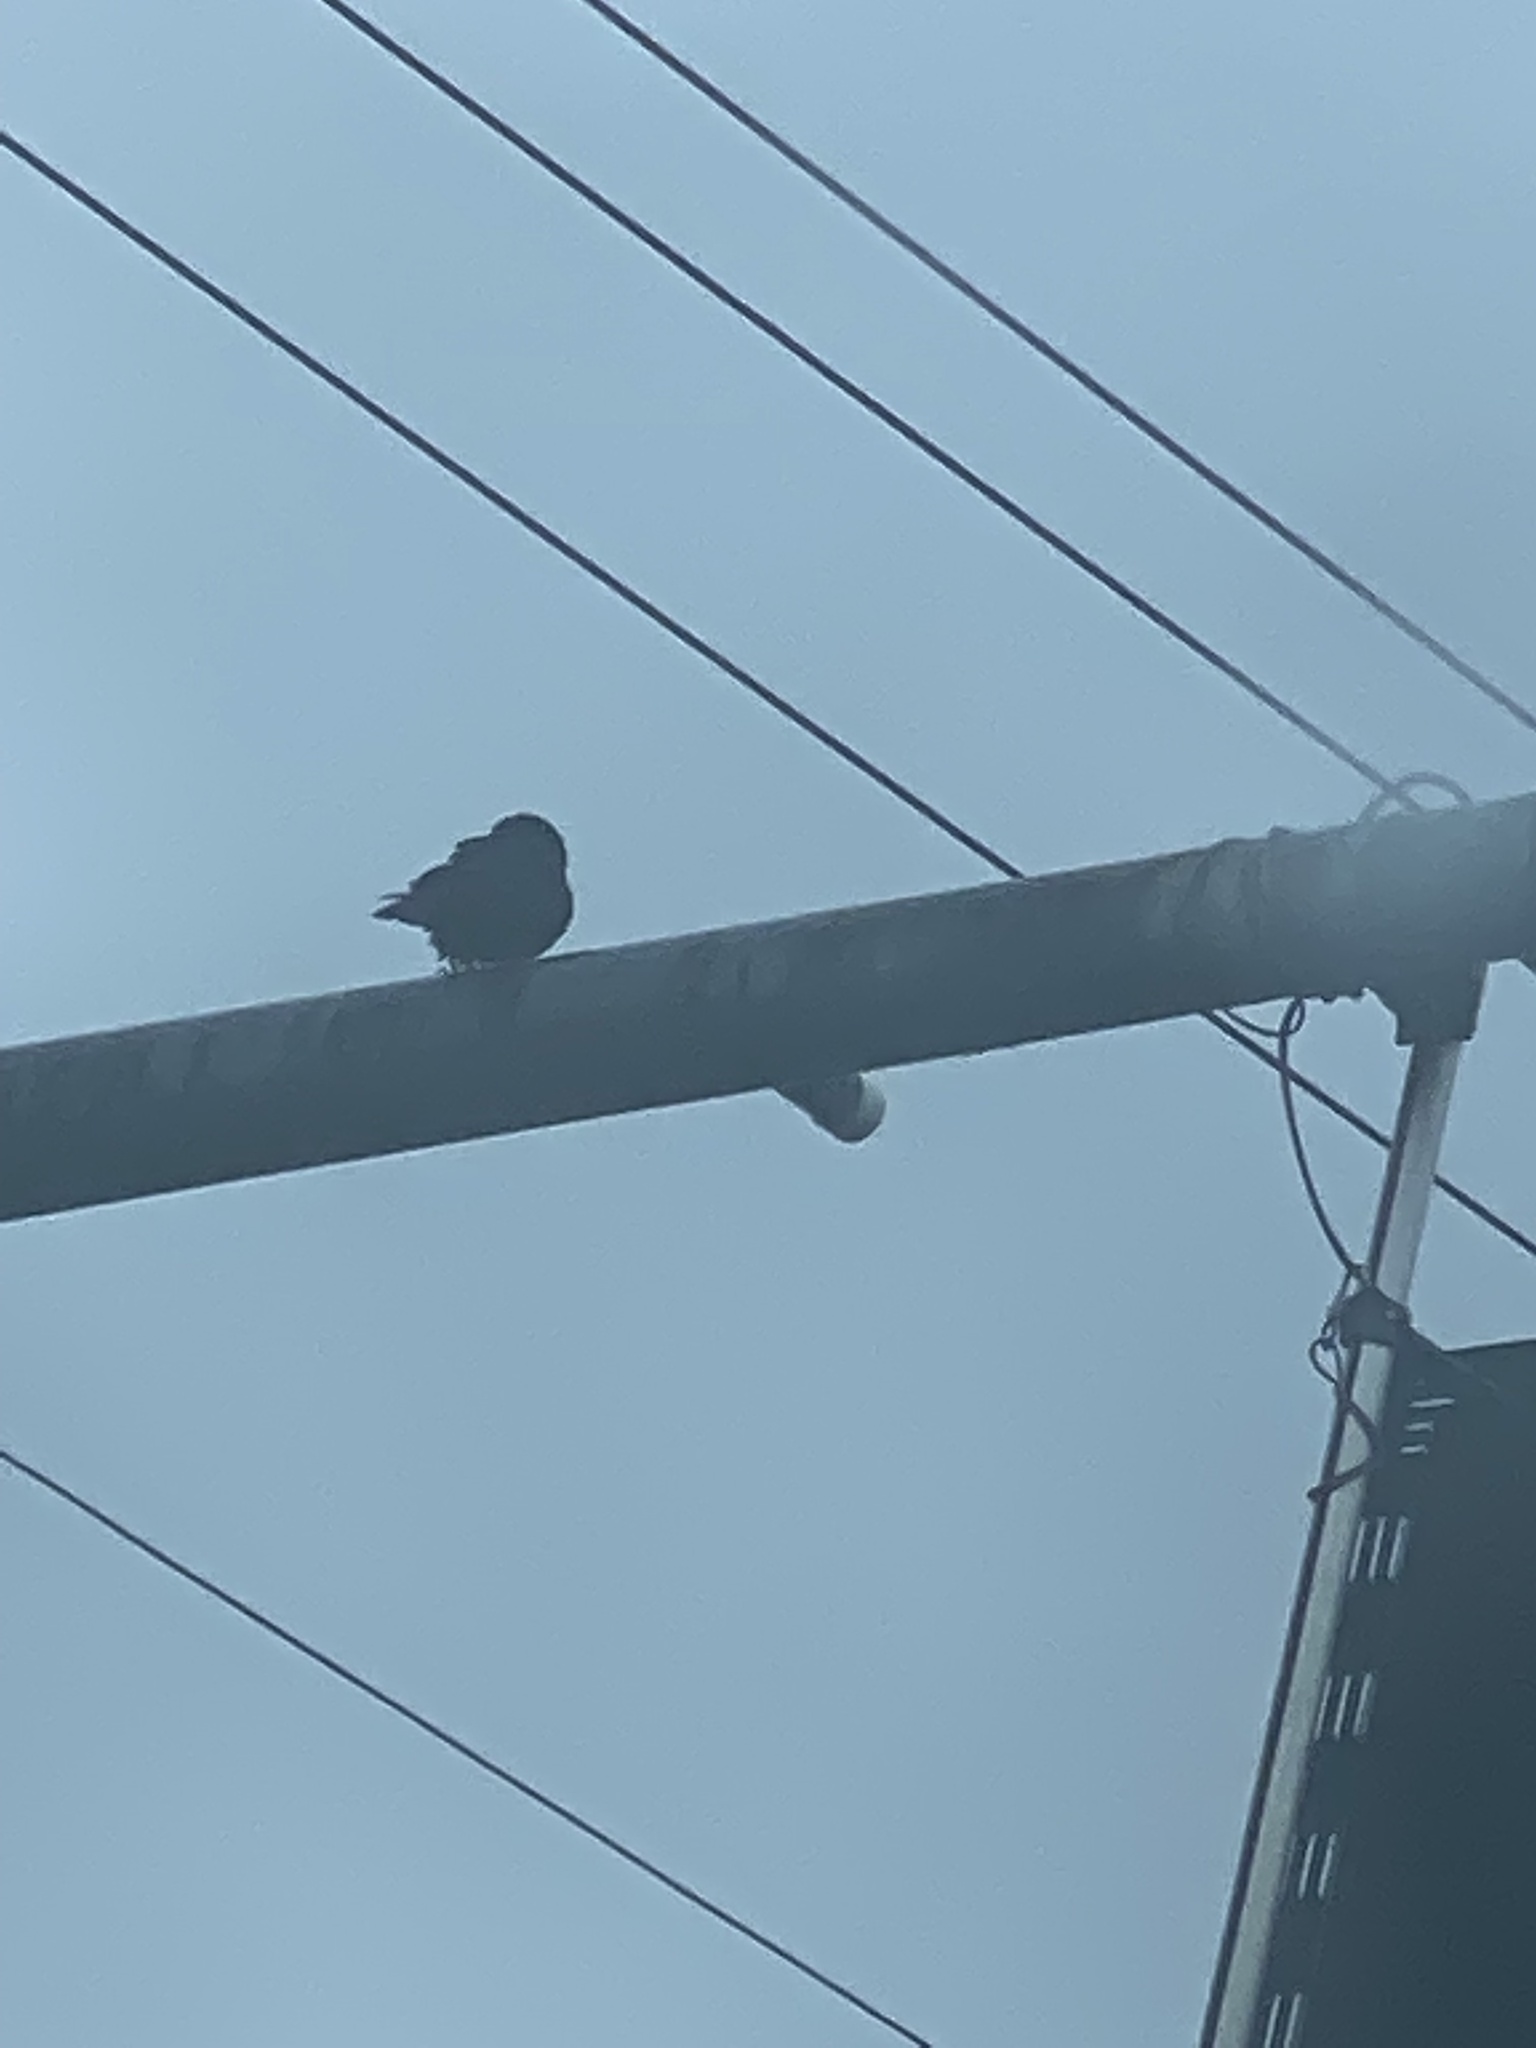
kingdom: Animalia
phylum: Chordata
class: Aves
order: Passeriformes
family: Corvidae
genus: Corvus
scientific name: Corvus brachyrhynchos
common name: American crow
